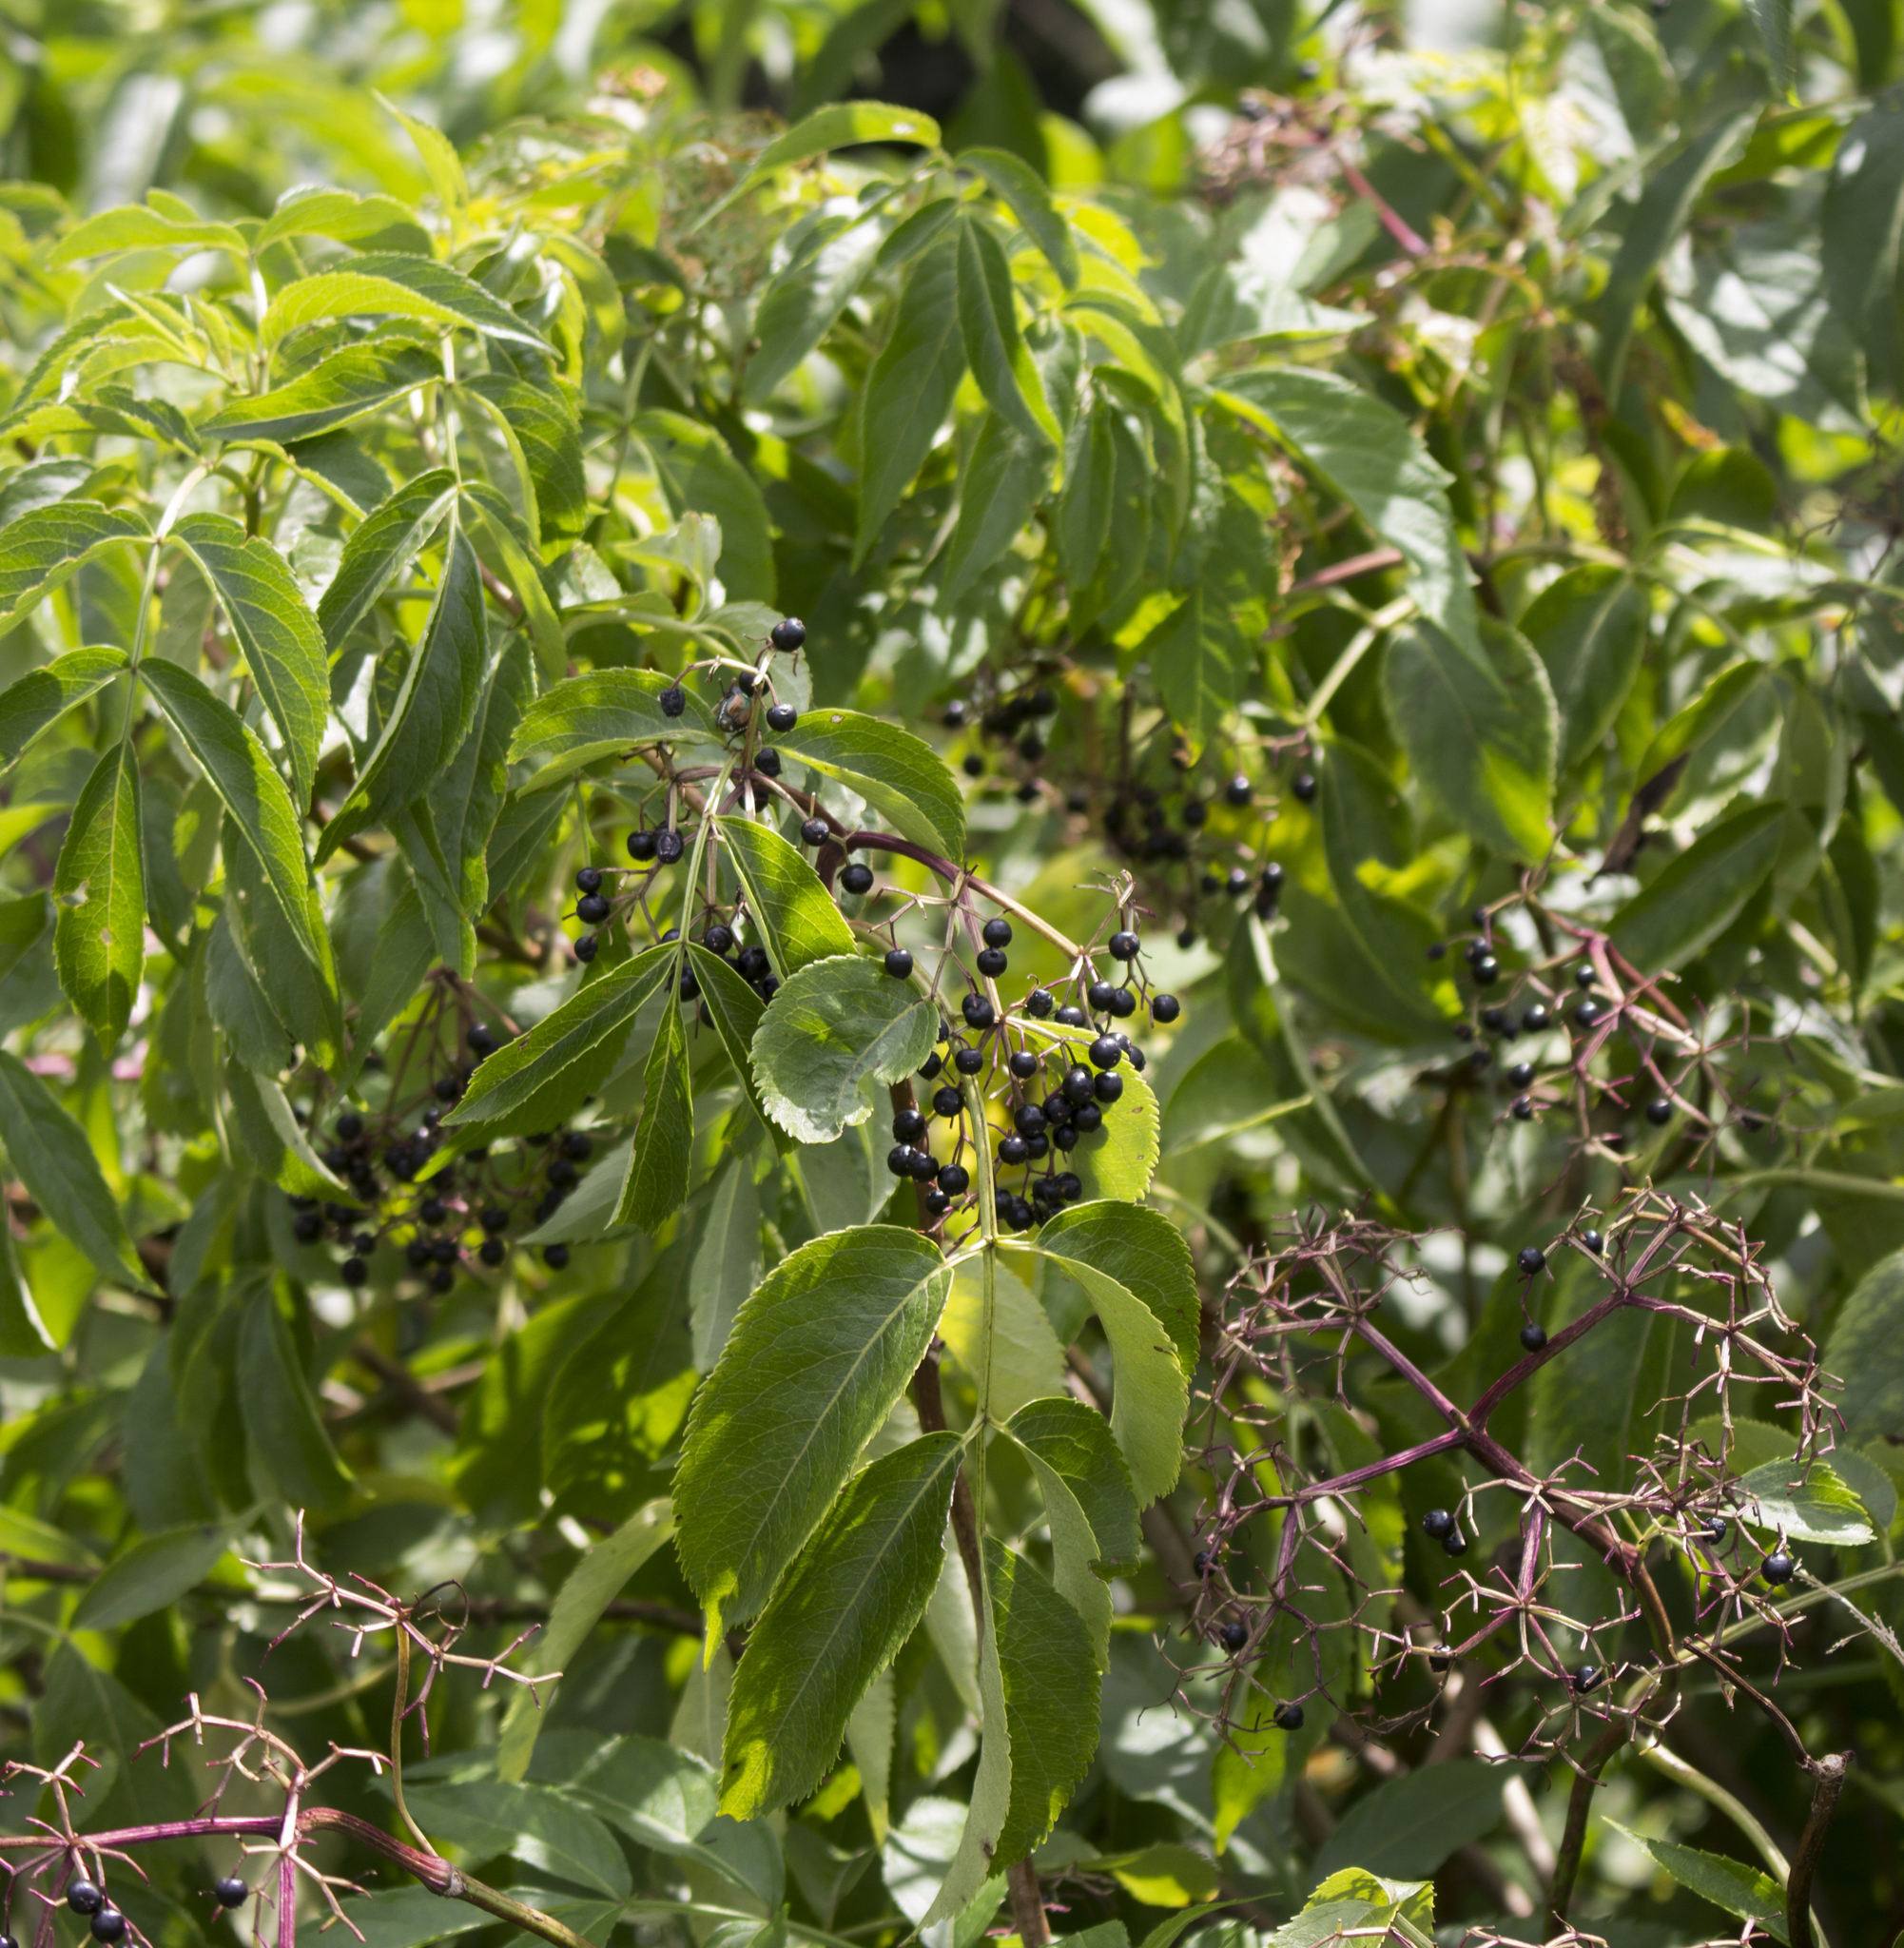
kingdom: Plantae
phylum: Tracheophyta
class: Magnoliopsida
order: Dipsacales
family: Viburnaceae
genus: Sambucus
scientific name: Sambucus canadensis
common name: American elder
